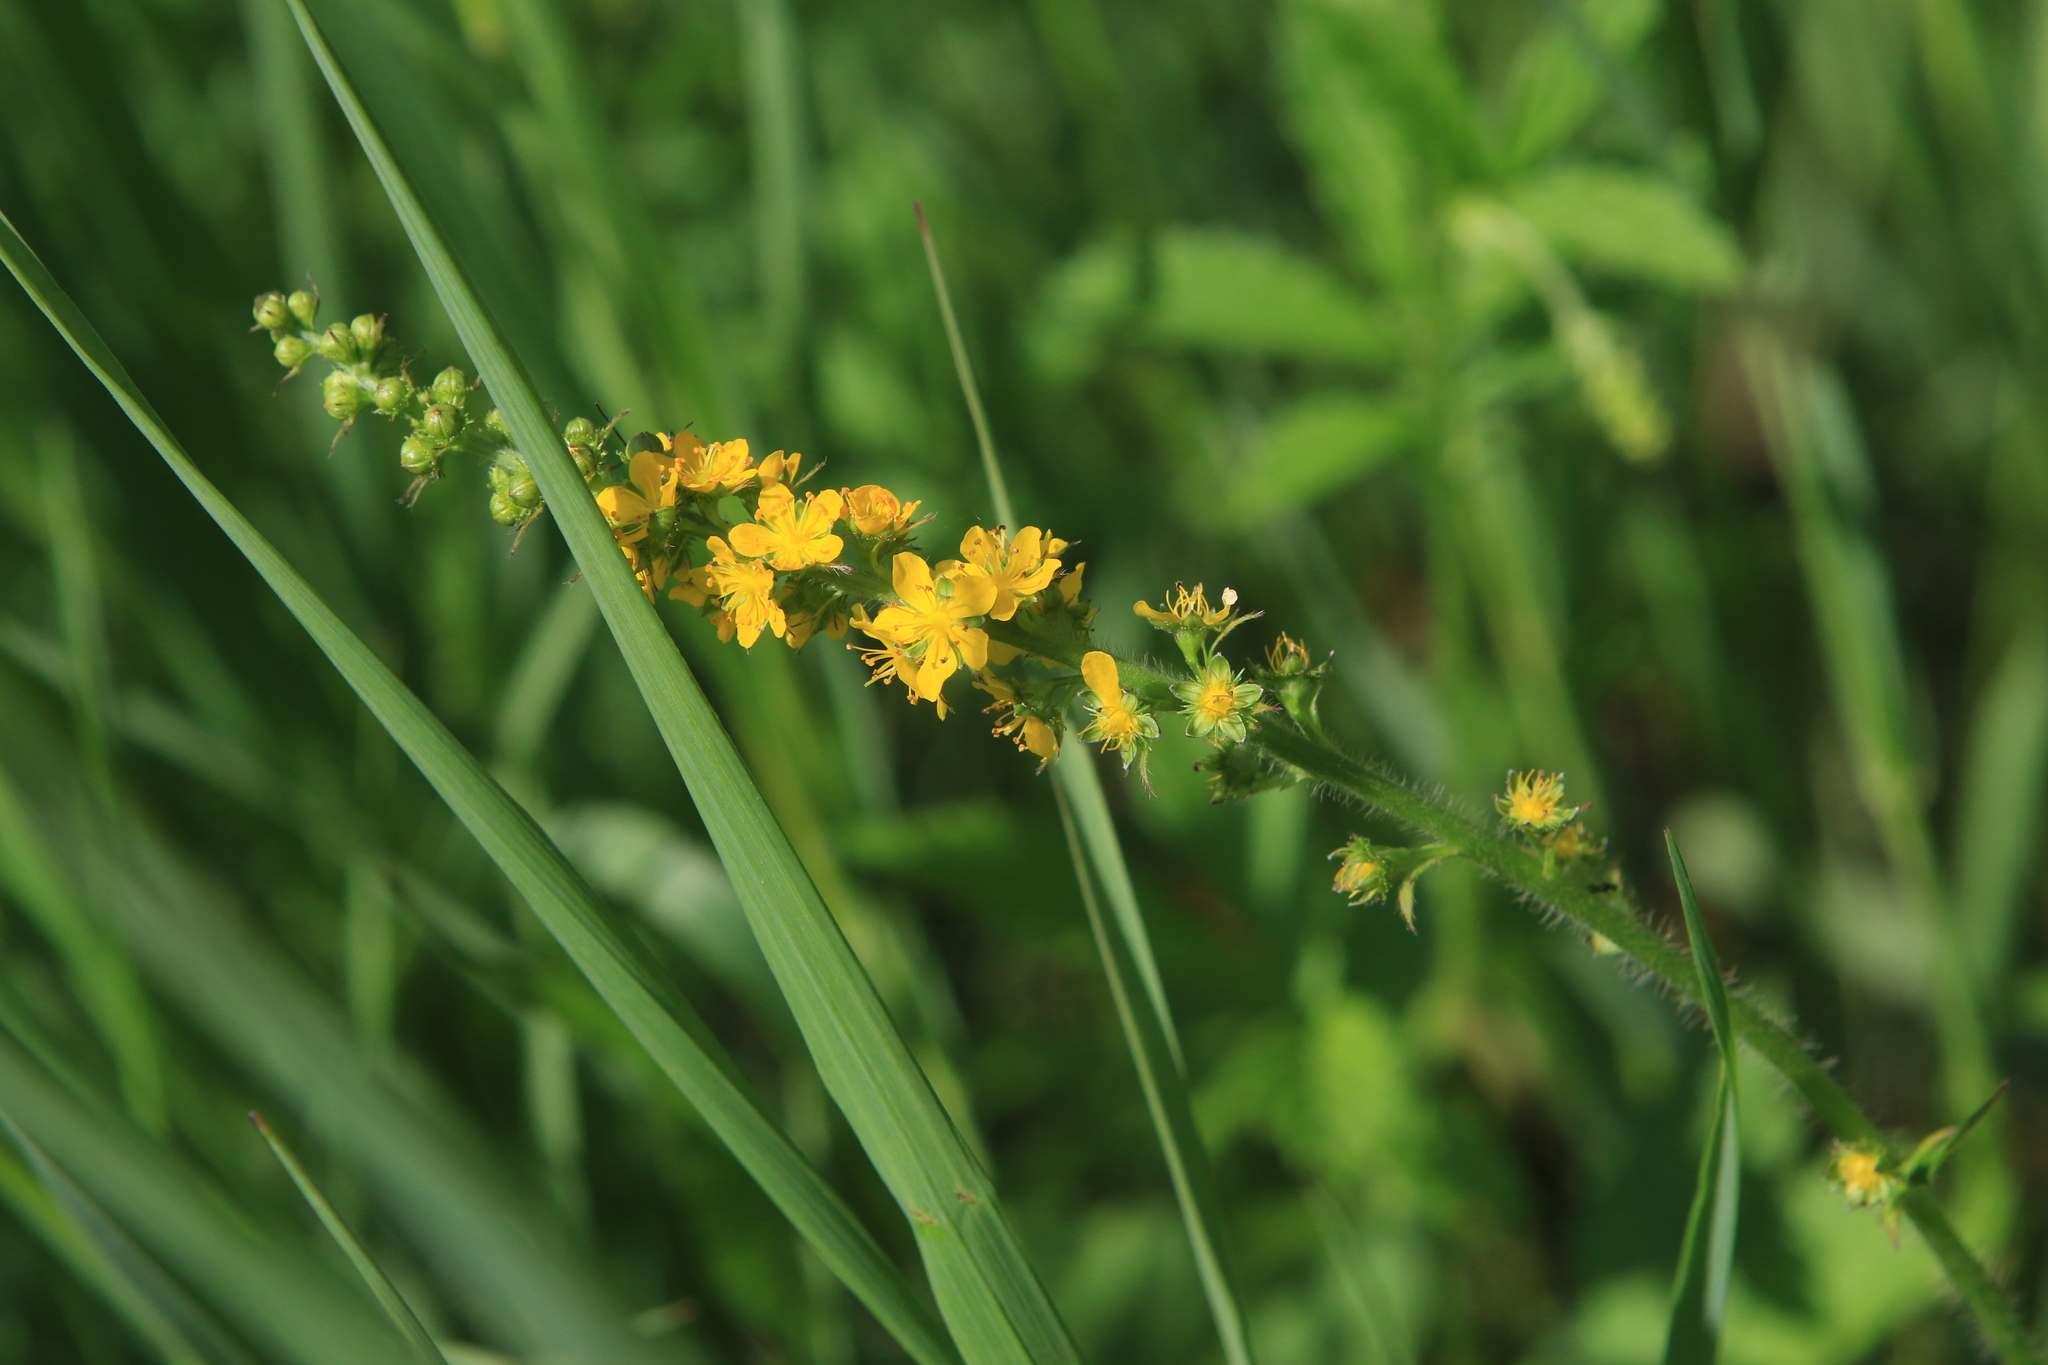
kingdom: Plantae
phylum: Tracheophyta
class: Magnoliopsida
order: Rosales
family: Rosaceae
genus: Agrimonia
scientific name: Agrimonia pilosa
